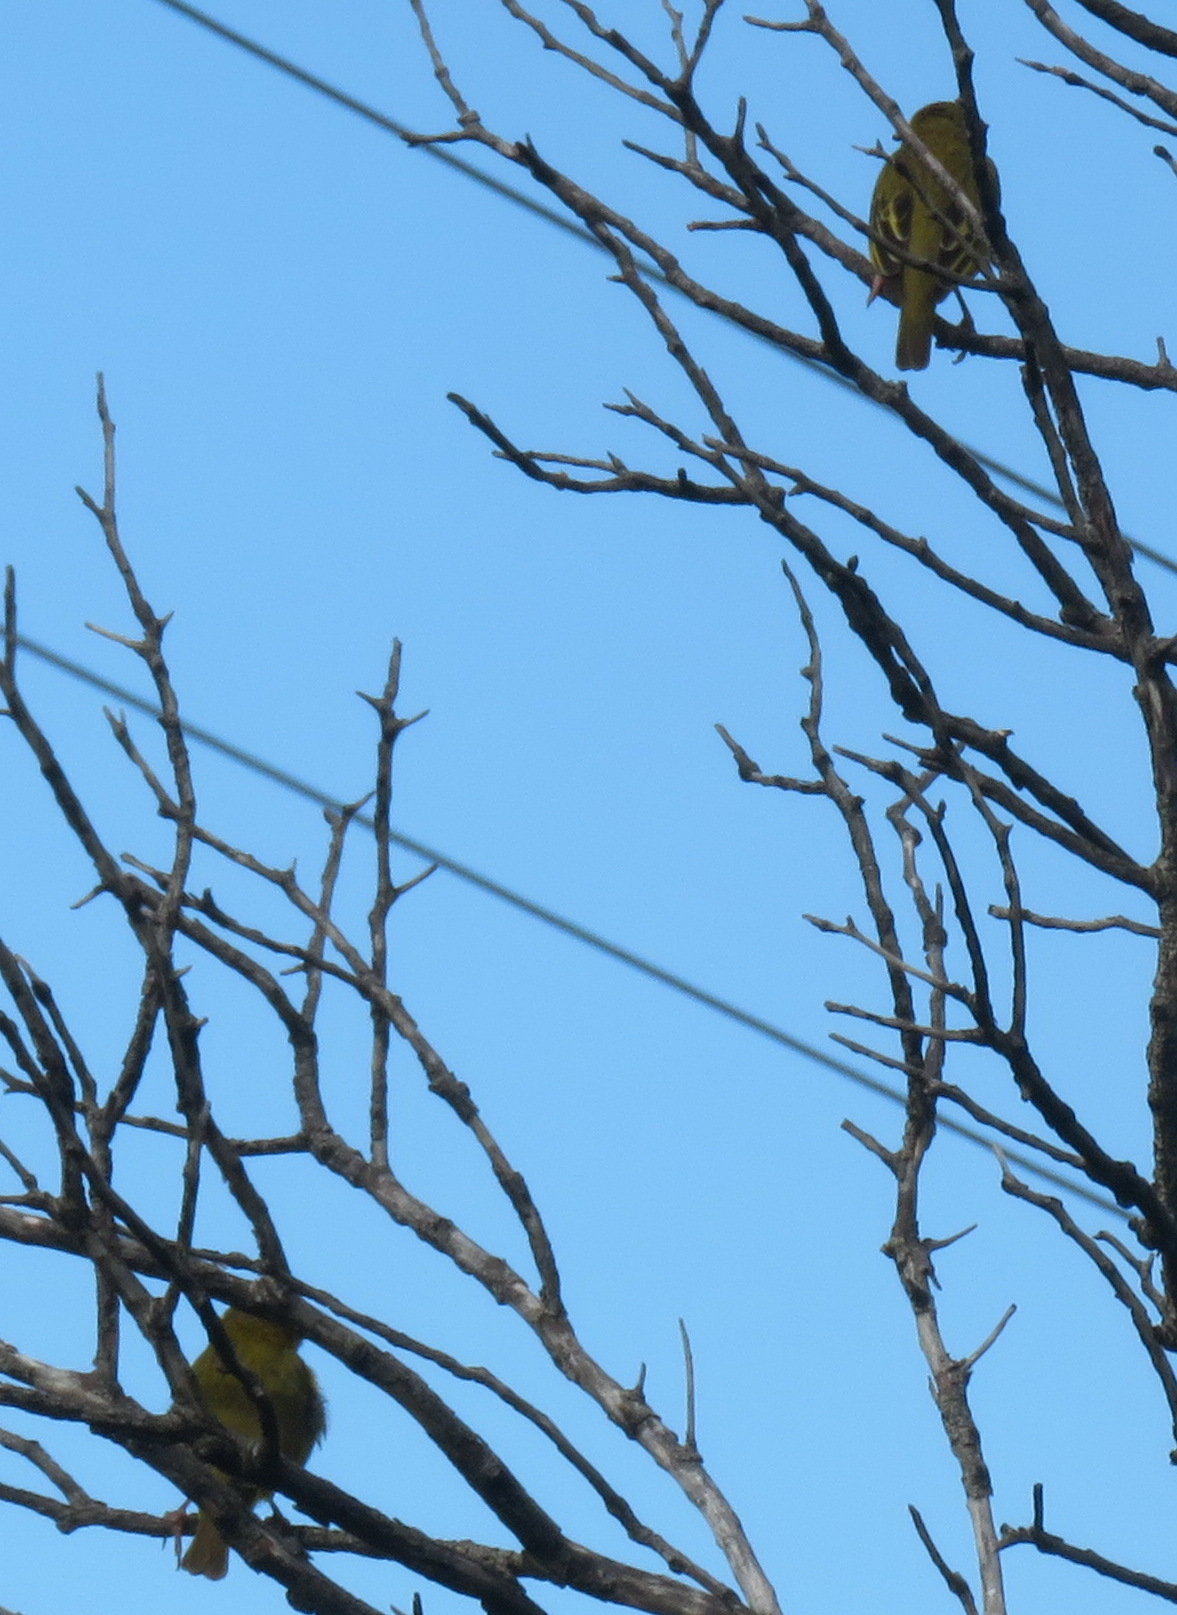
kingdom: Animalia
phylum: Chordata
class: Aves
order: Passeriformes
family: Ploceidae
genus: Ploceus
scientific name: Ploceus capensis
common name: Cape weaver
